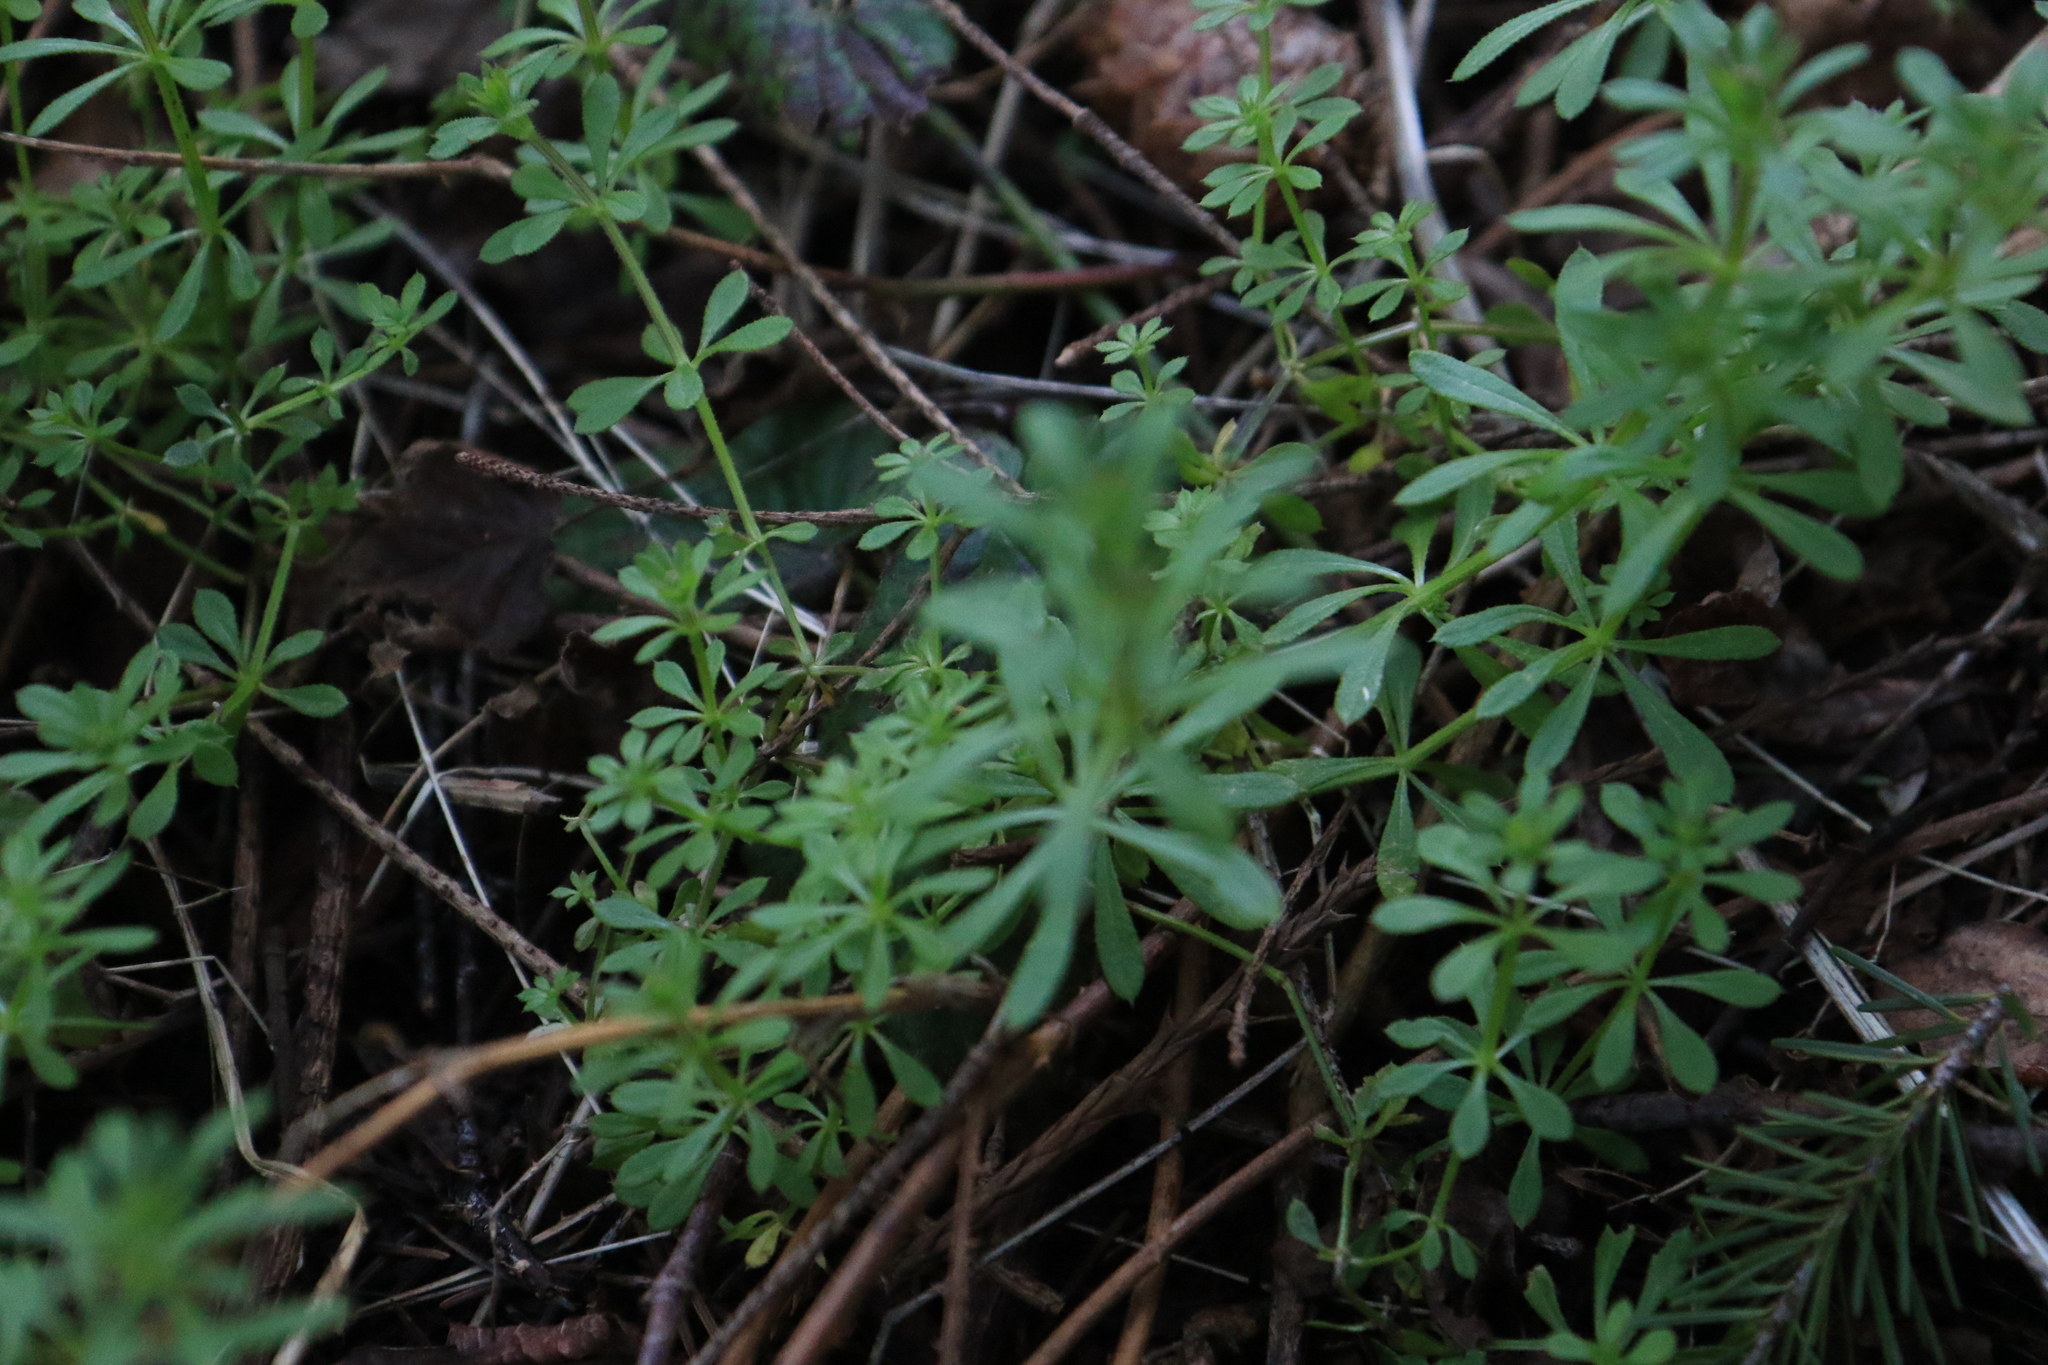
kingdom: Plantae
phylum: Tracheophyta
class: Magnoliopsida
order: Gentianales
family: Rubiaceae
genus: Galium
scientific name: Galium aparine
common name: Cleavers
